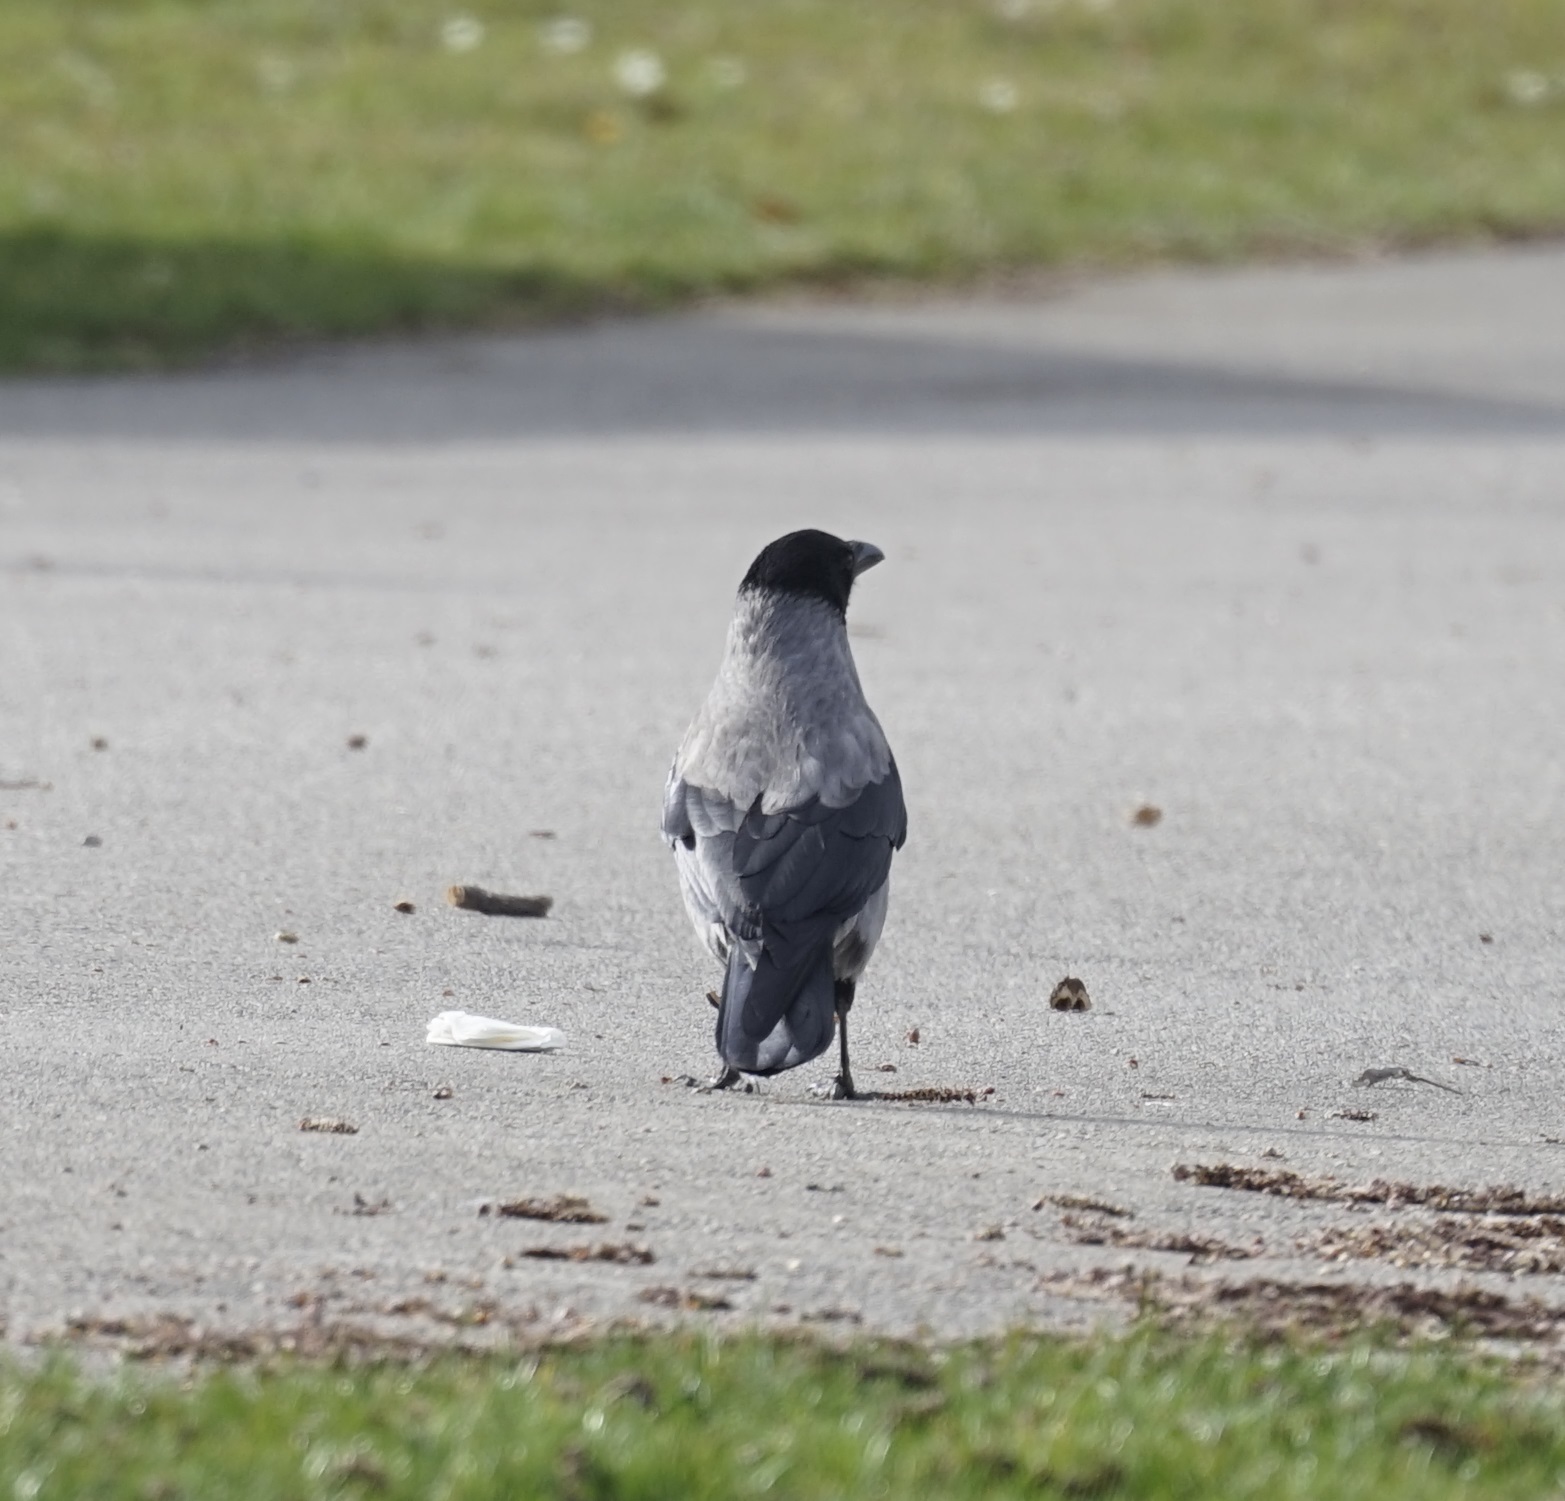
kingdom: Animalia
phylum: Chordata
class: Aves
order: Passeriformes
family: Corvidae
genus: Corvus
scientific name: Corvus cornix
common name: Hooded crow
